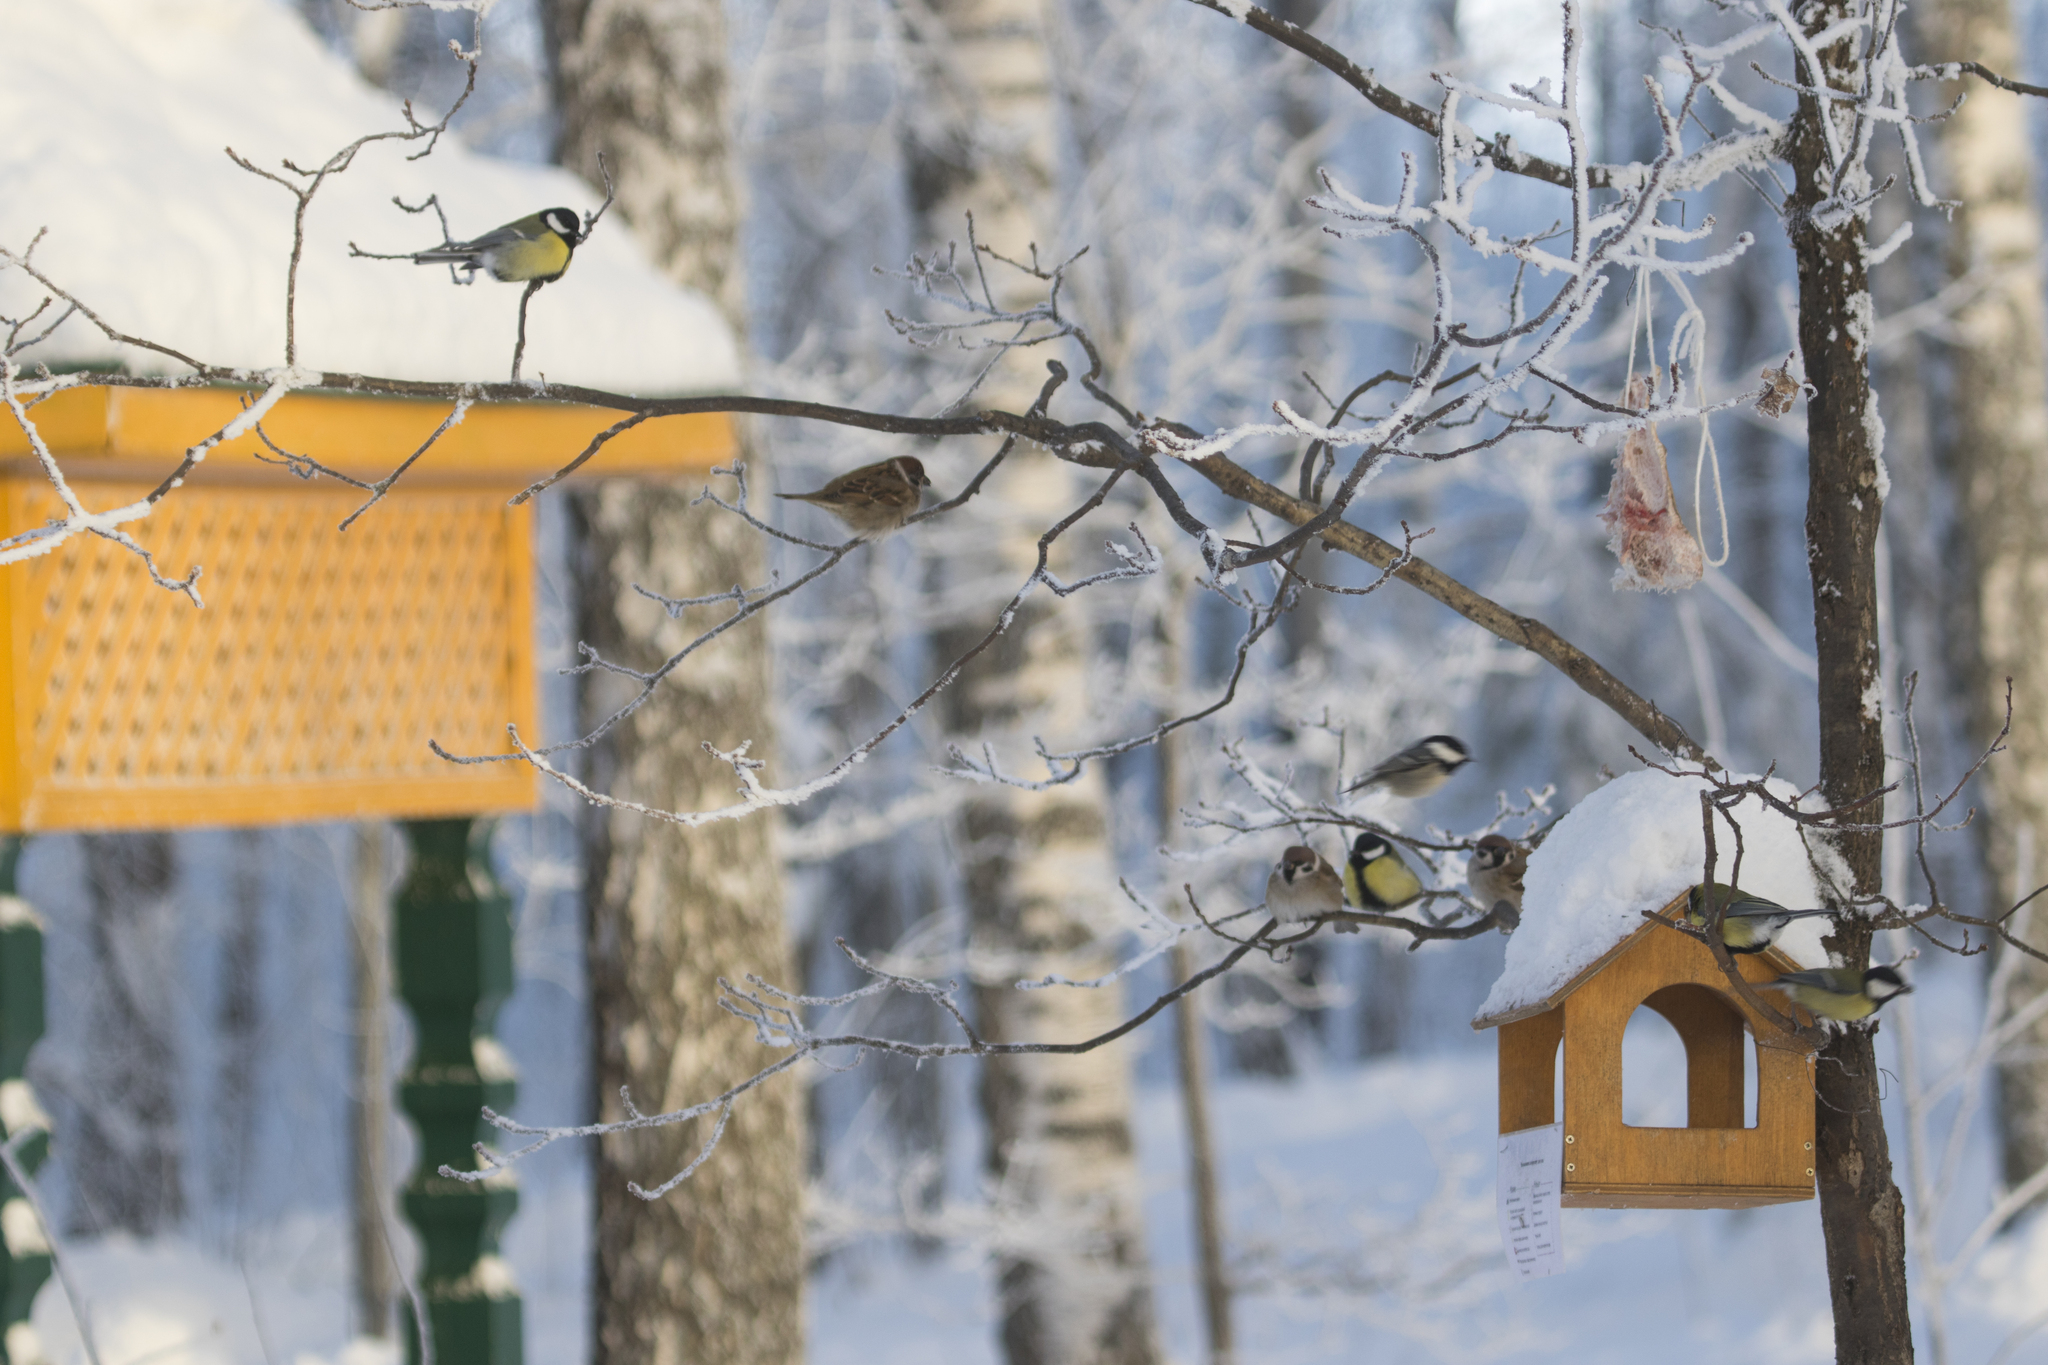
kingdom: Animalia
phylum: Chordata
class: Aves
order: Passeriformes
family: Paridae
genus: Parus
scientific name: Parus major
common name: Great tit
